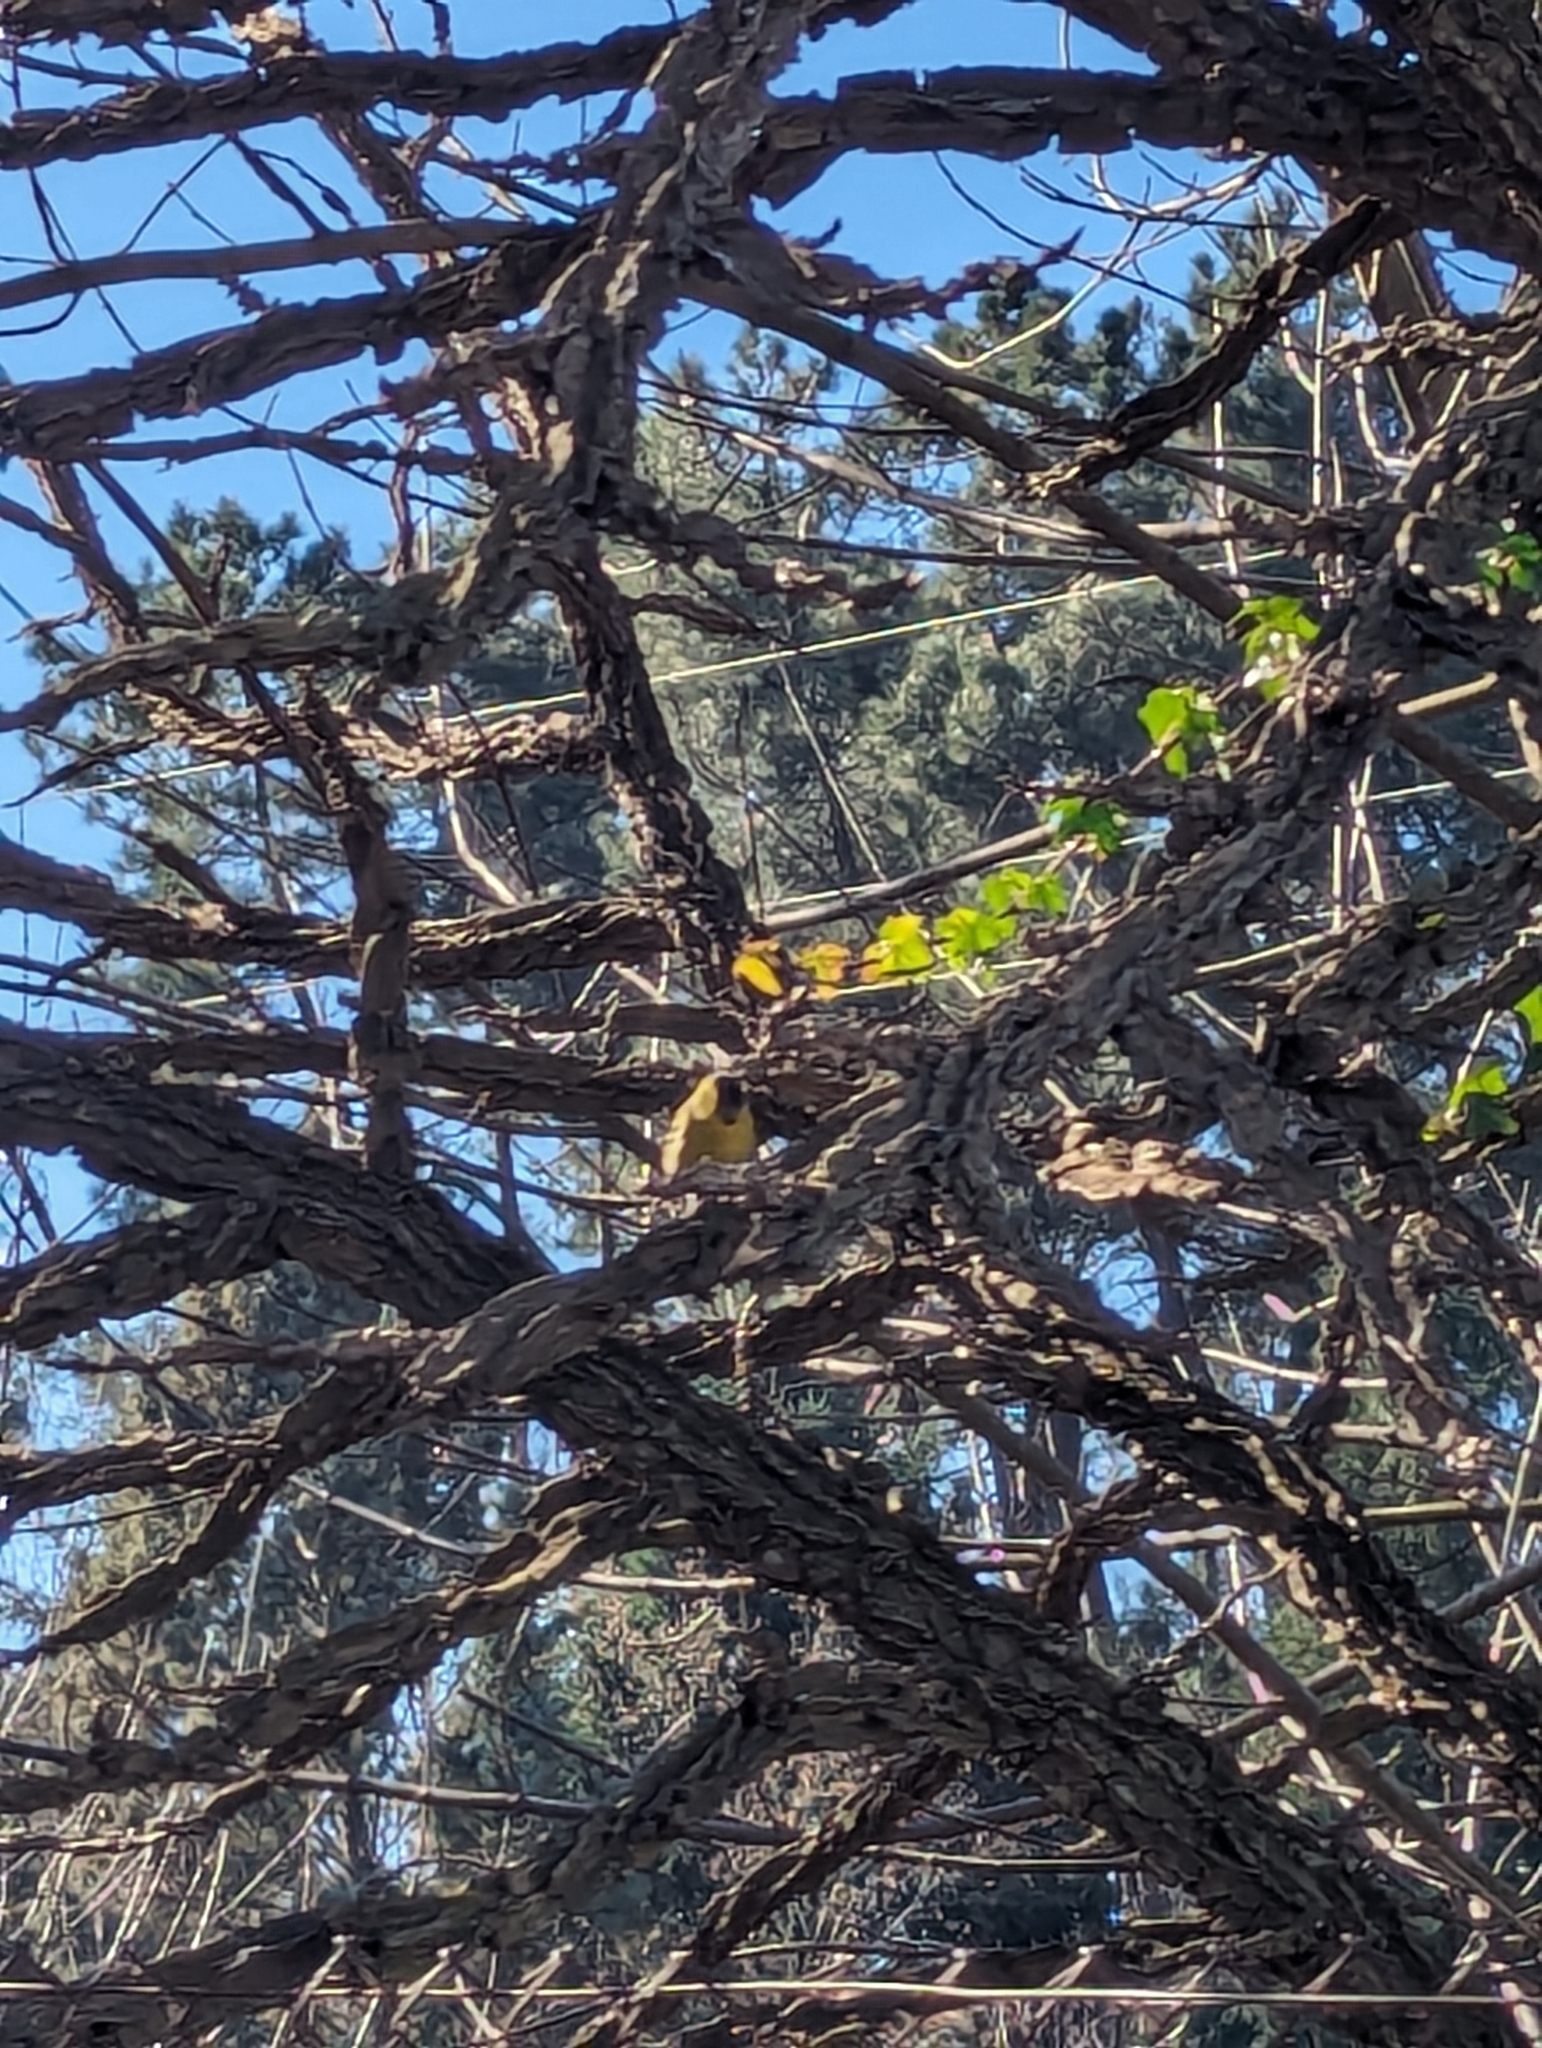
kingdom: Animalia
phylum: Chordata
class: Aves
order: Passeriformes
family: Fringillidae
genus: Spinus
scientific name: Spinus spinus
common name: Eurasian siskin
